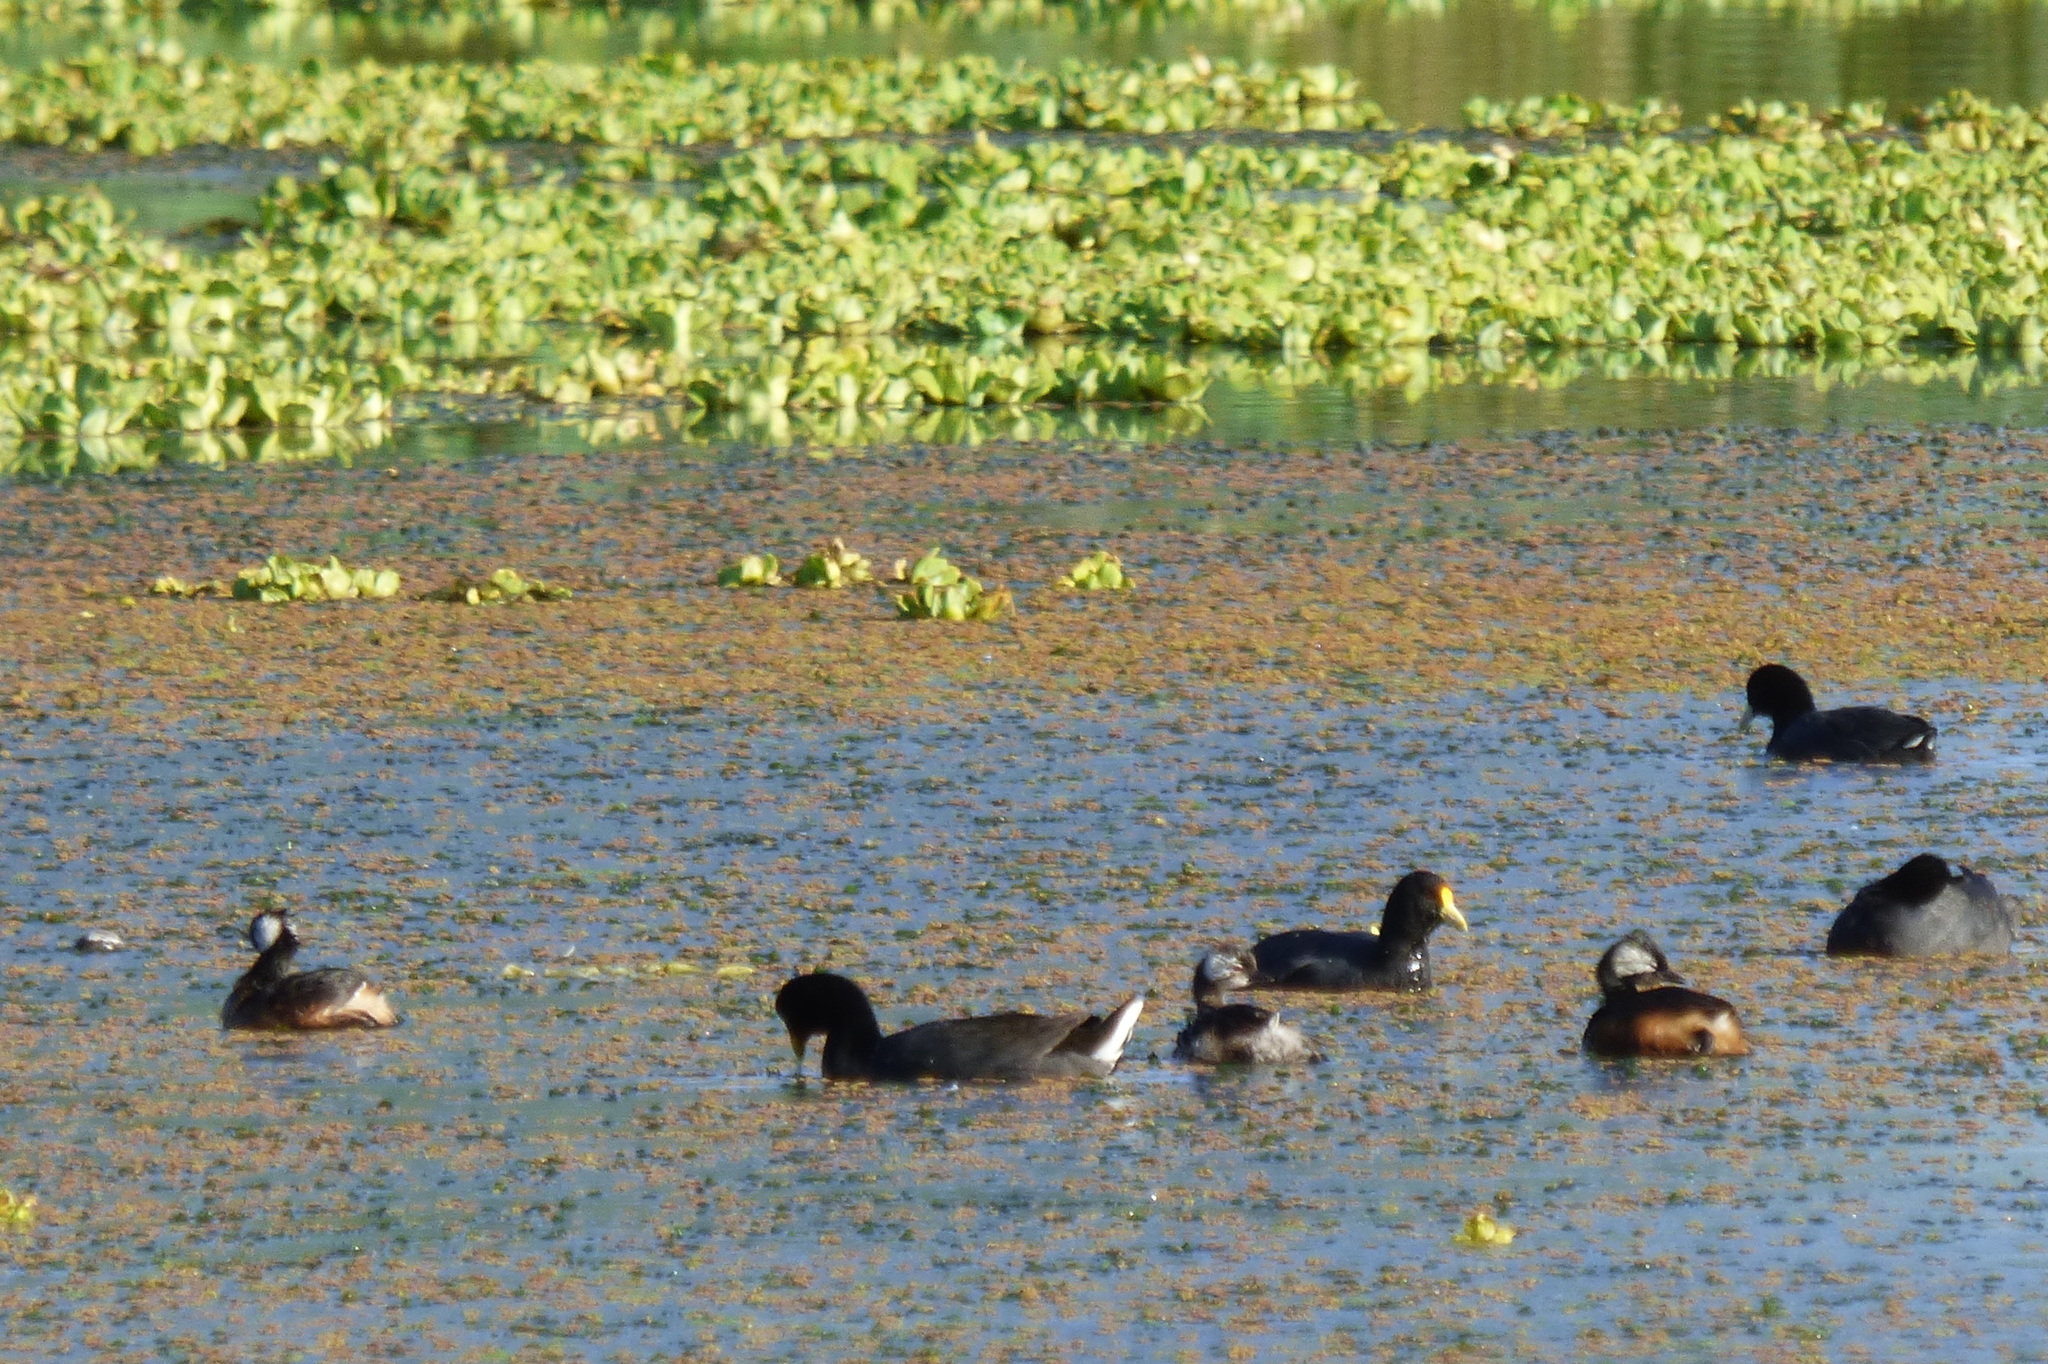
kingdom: Animalia
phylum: Chordata
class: Aves
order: Podicipediformes
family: Podicipedidae
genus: Rollandia
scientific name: Rollandia rolland
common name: White-tufted grebe
